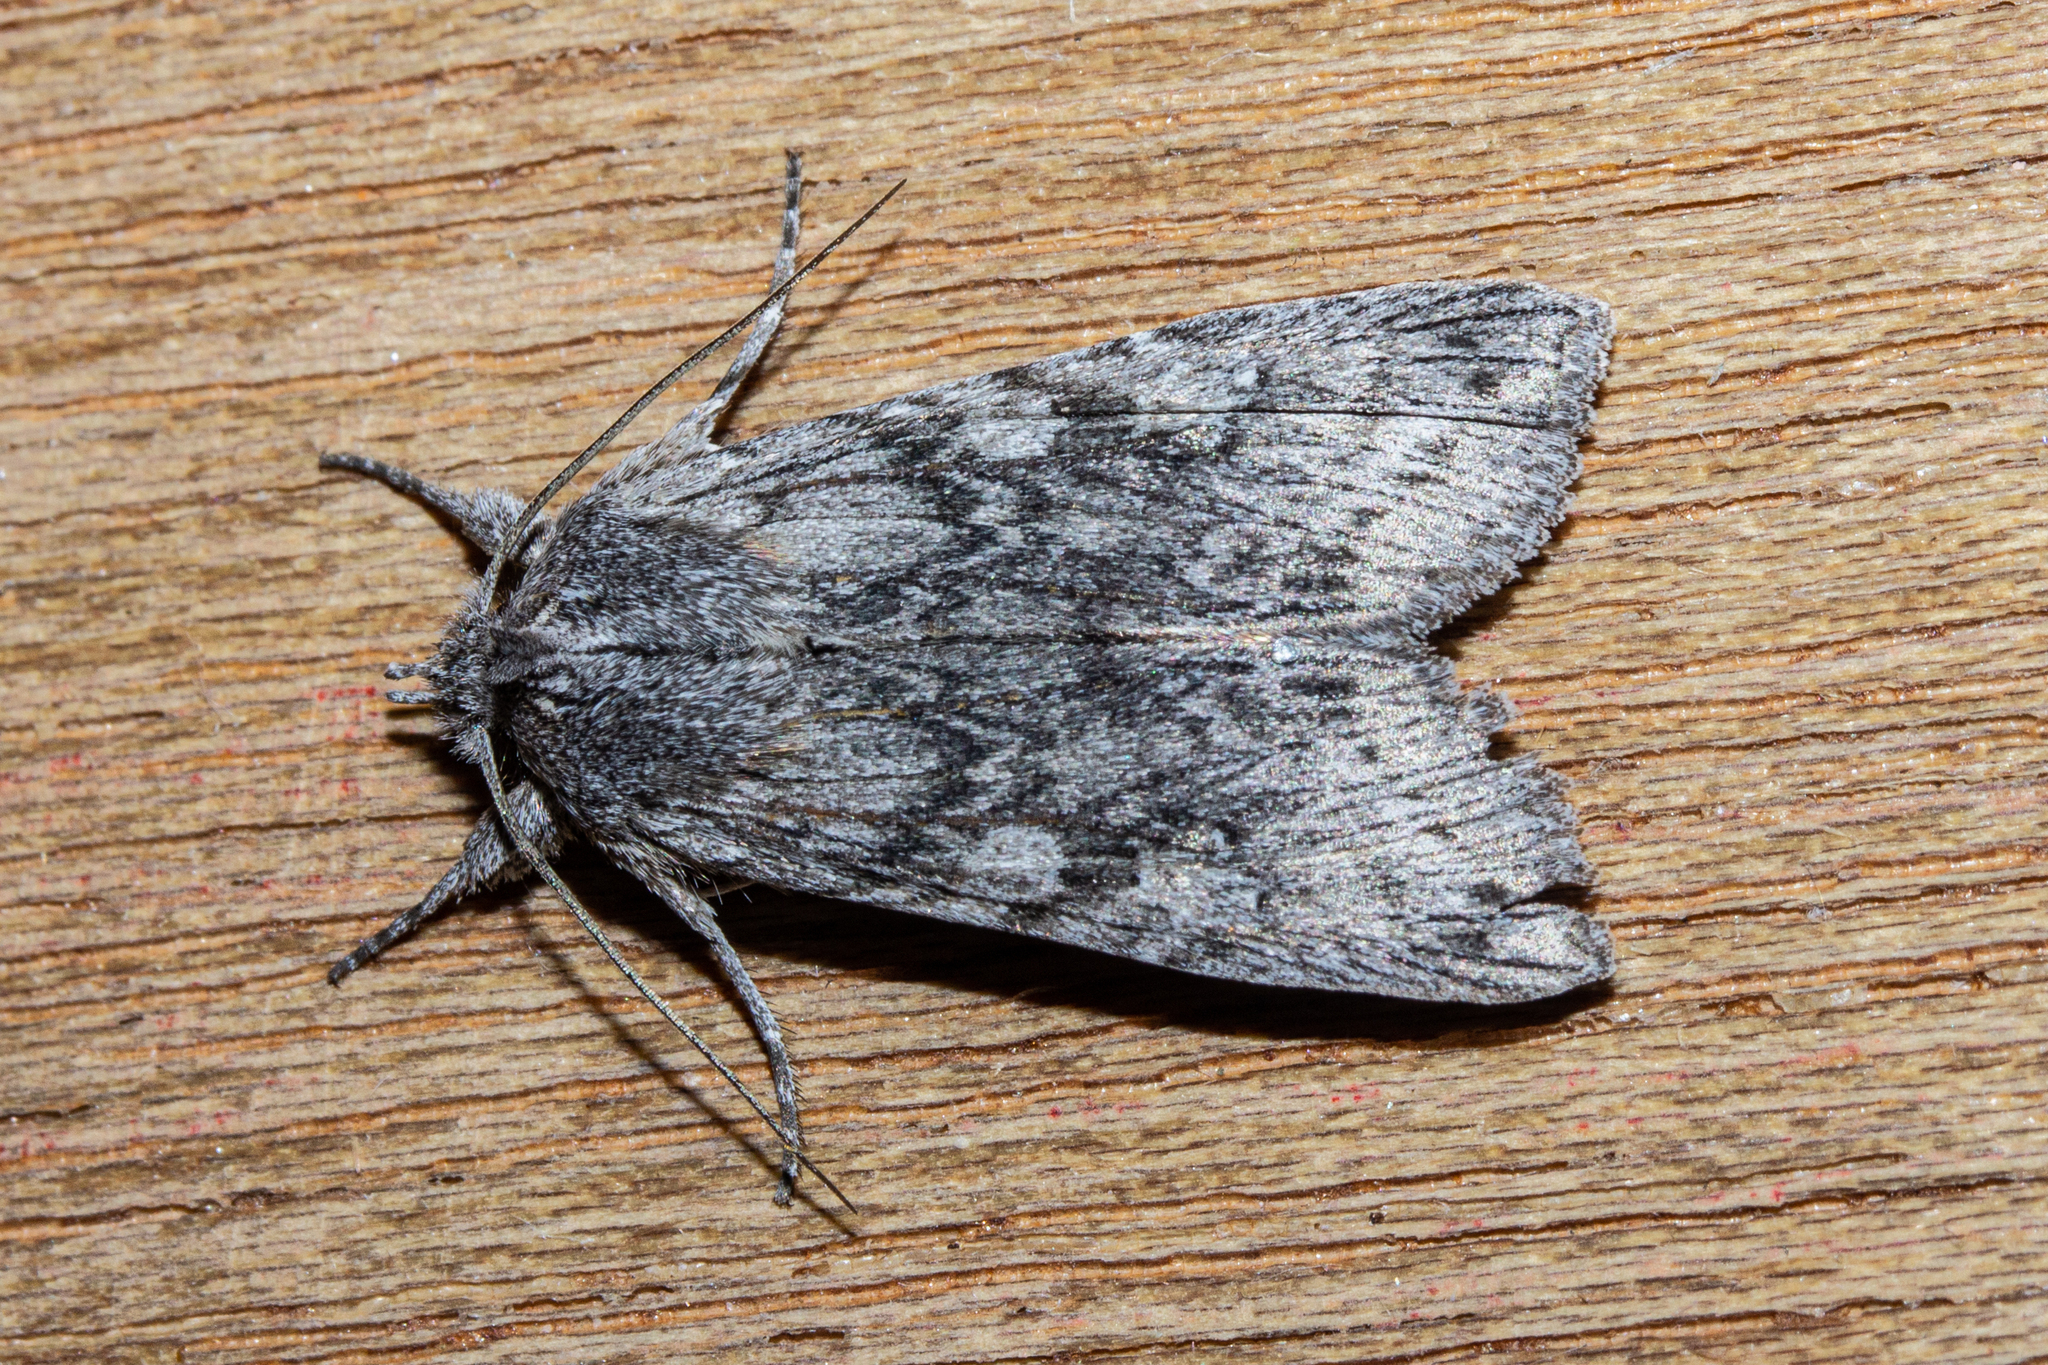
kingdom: Animalia
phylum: Arthropoda
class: Insecta
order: Lepidoptera
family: Noctuidae
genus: Physetica
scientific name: Physetica phricias
